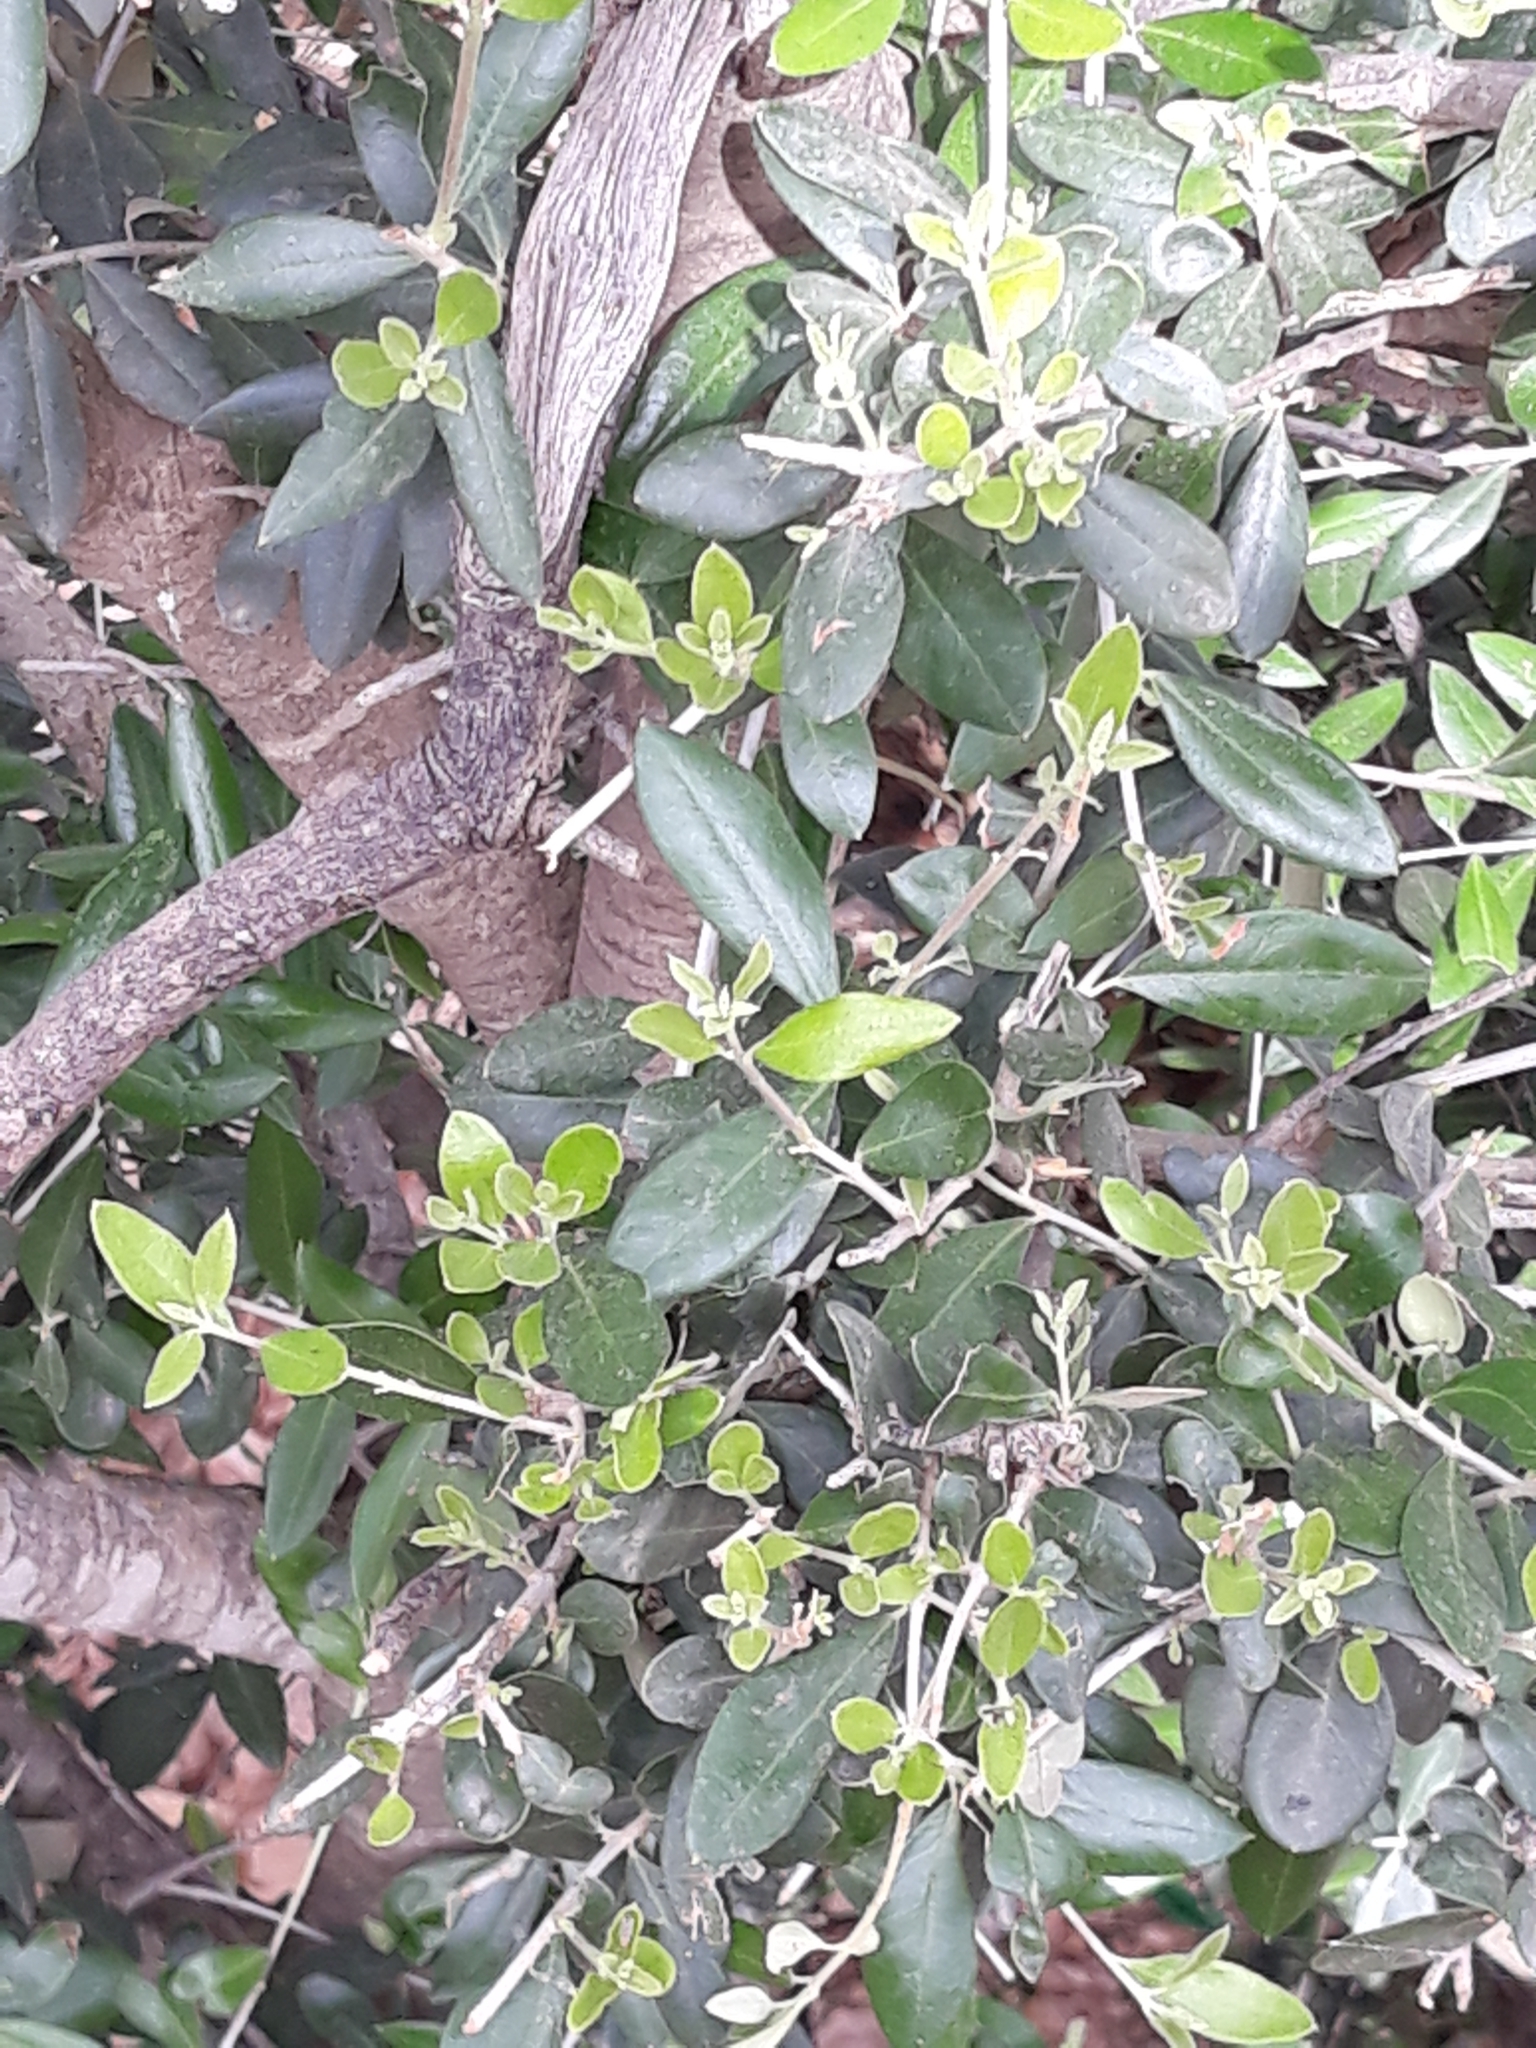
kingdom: Plantae
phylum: Tracheophyta
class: Magnoliopsida
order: Lamiales
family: Oleaceae
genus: Olea
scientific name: Olea europaea
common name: Olive
